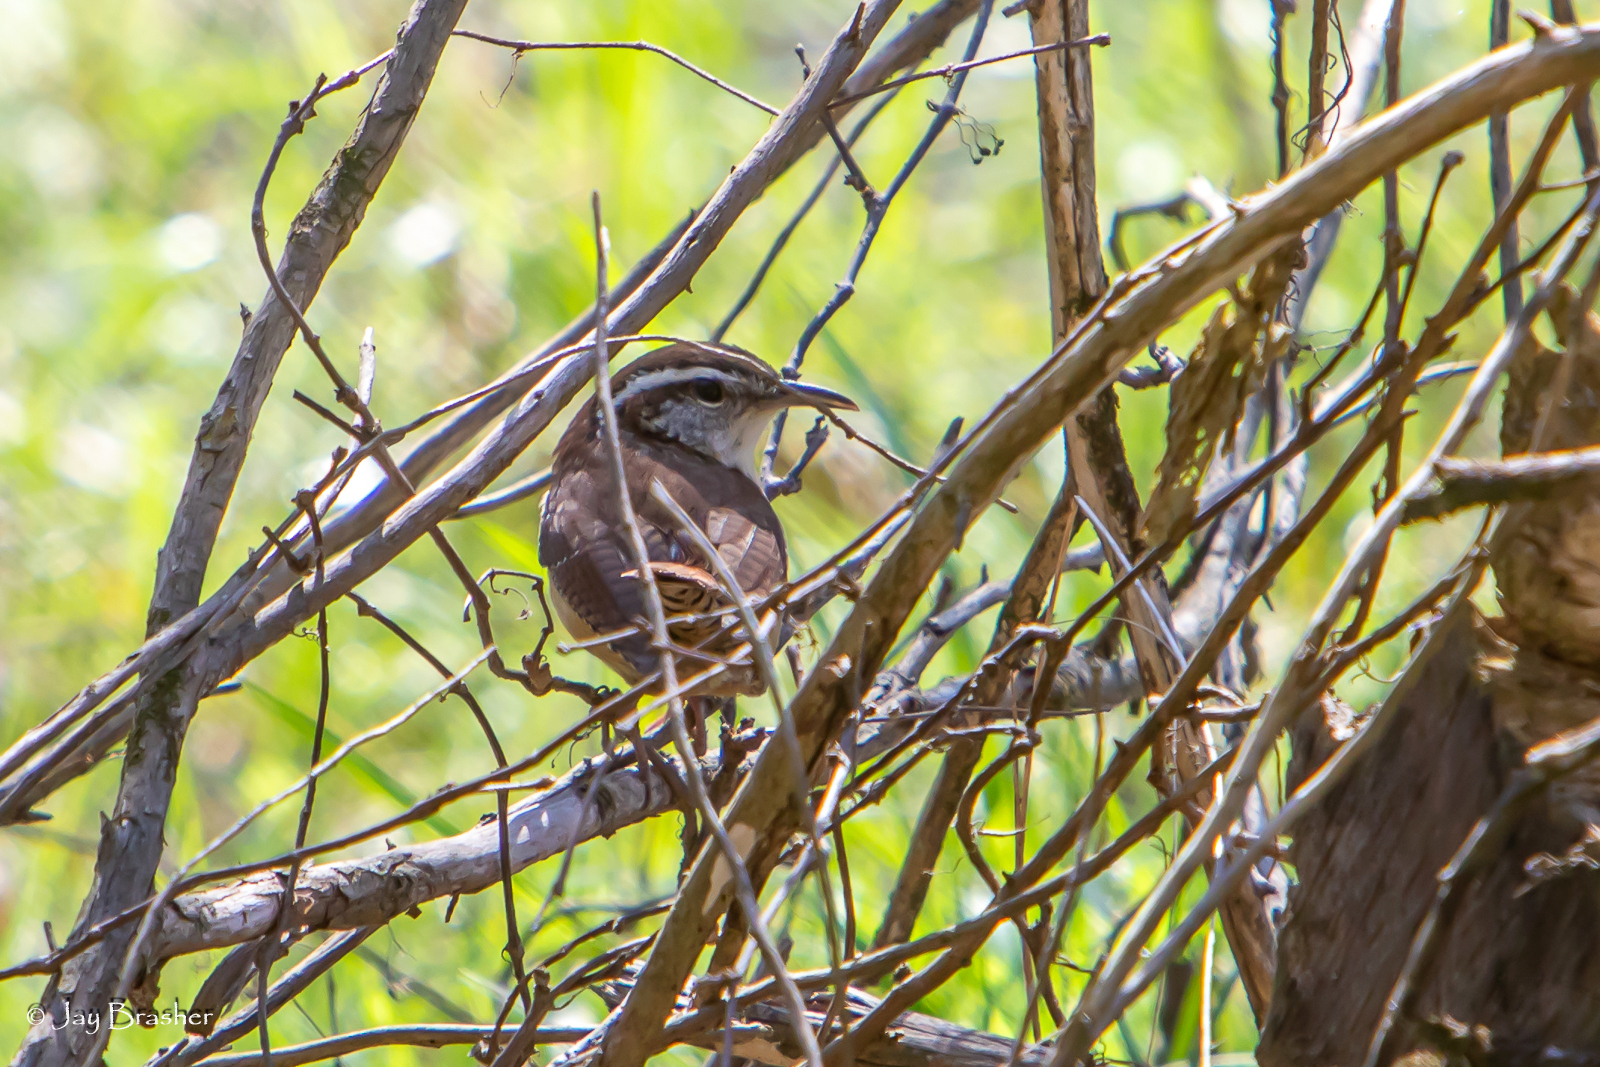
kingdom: Animalia
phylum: Chordata
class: Aves
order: Passeriformes
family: Troglodytidae
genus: Thryothorus
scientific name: Thryothorus ludovicianus
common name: Carolina wren
